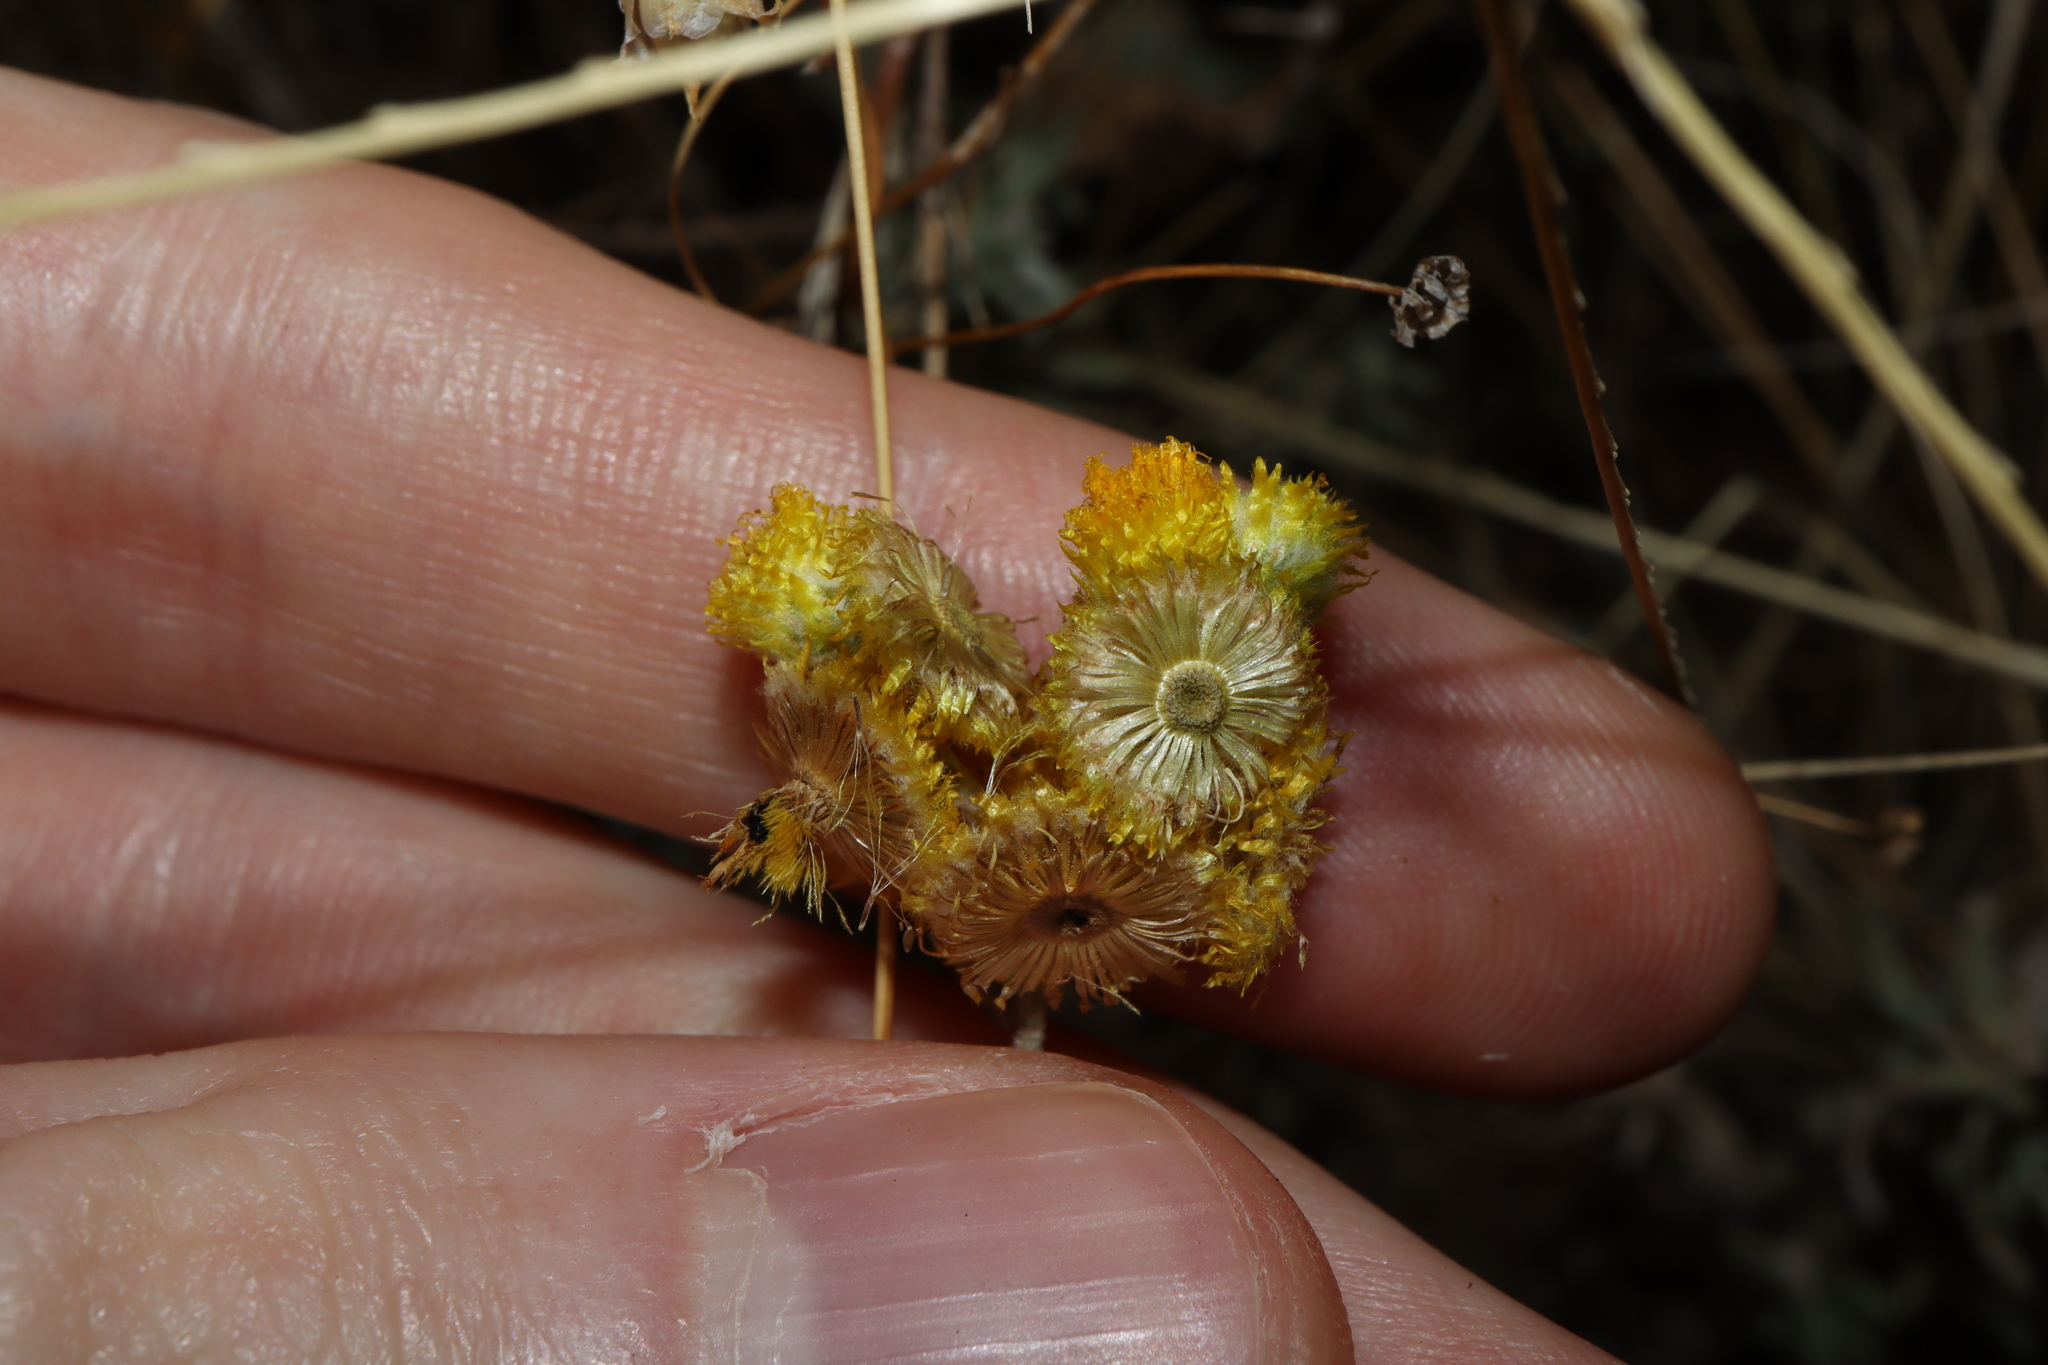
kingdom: Plantae
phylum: Tracheophyta
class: Magnoliopsida
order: Asterales
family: Asteraceae
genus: Chrysocephalum
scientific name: Chrysocephalum apiculatum
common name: Common everlasting
